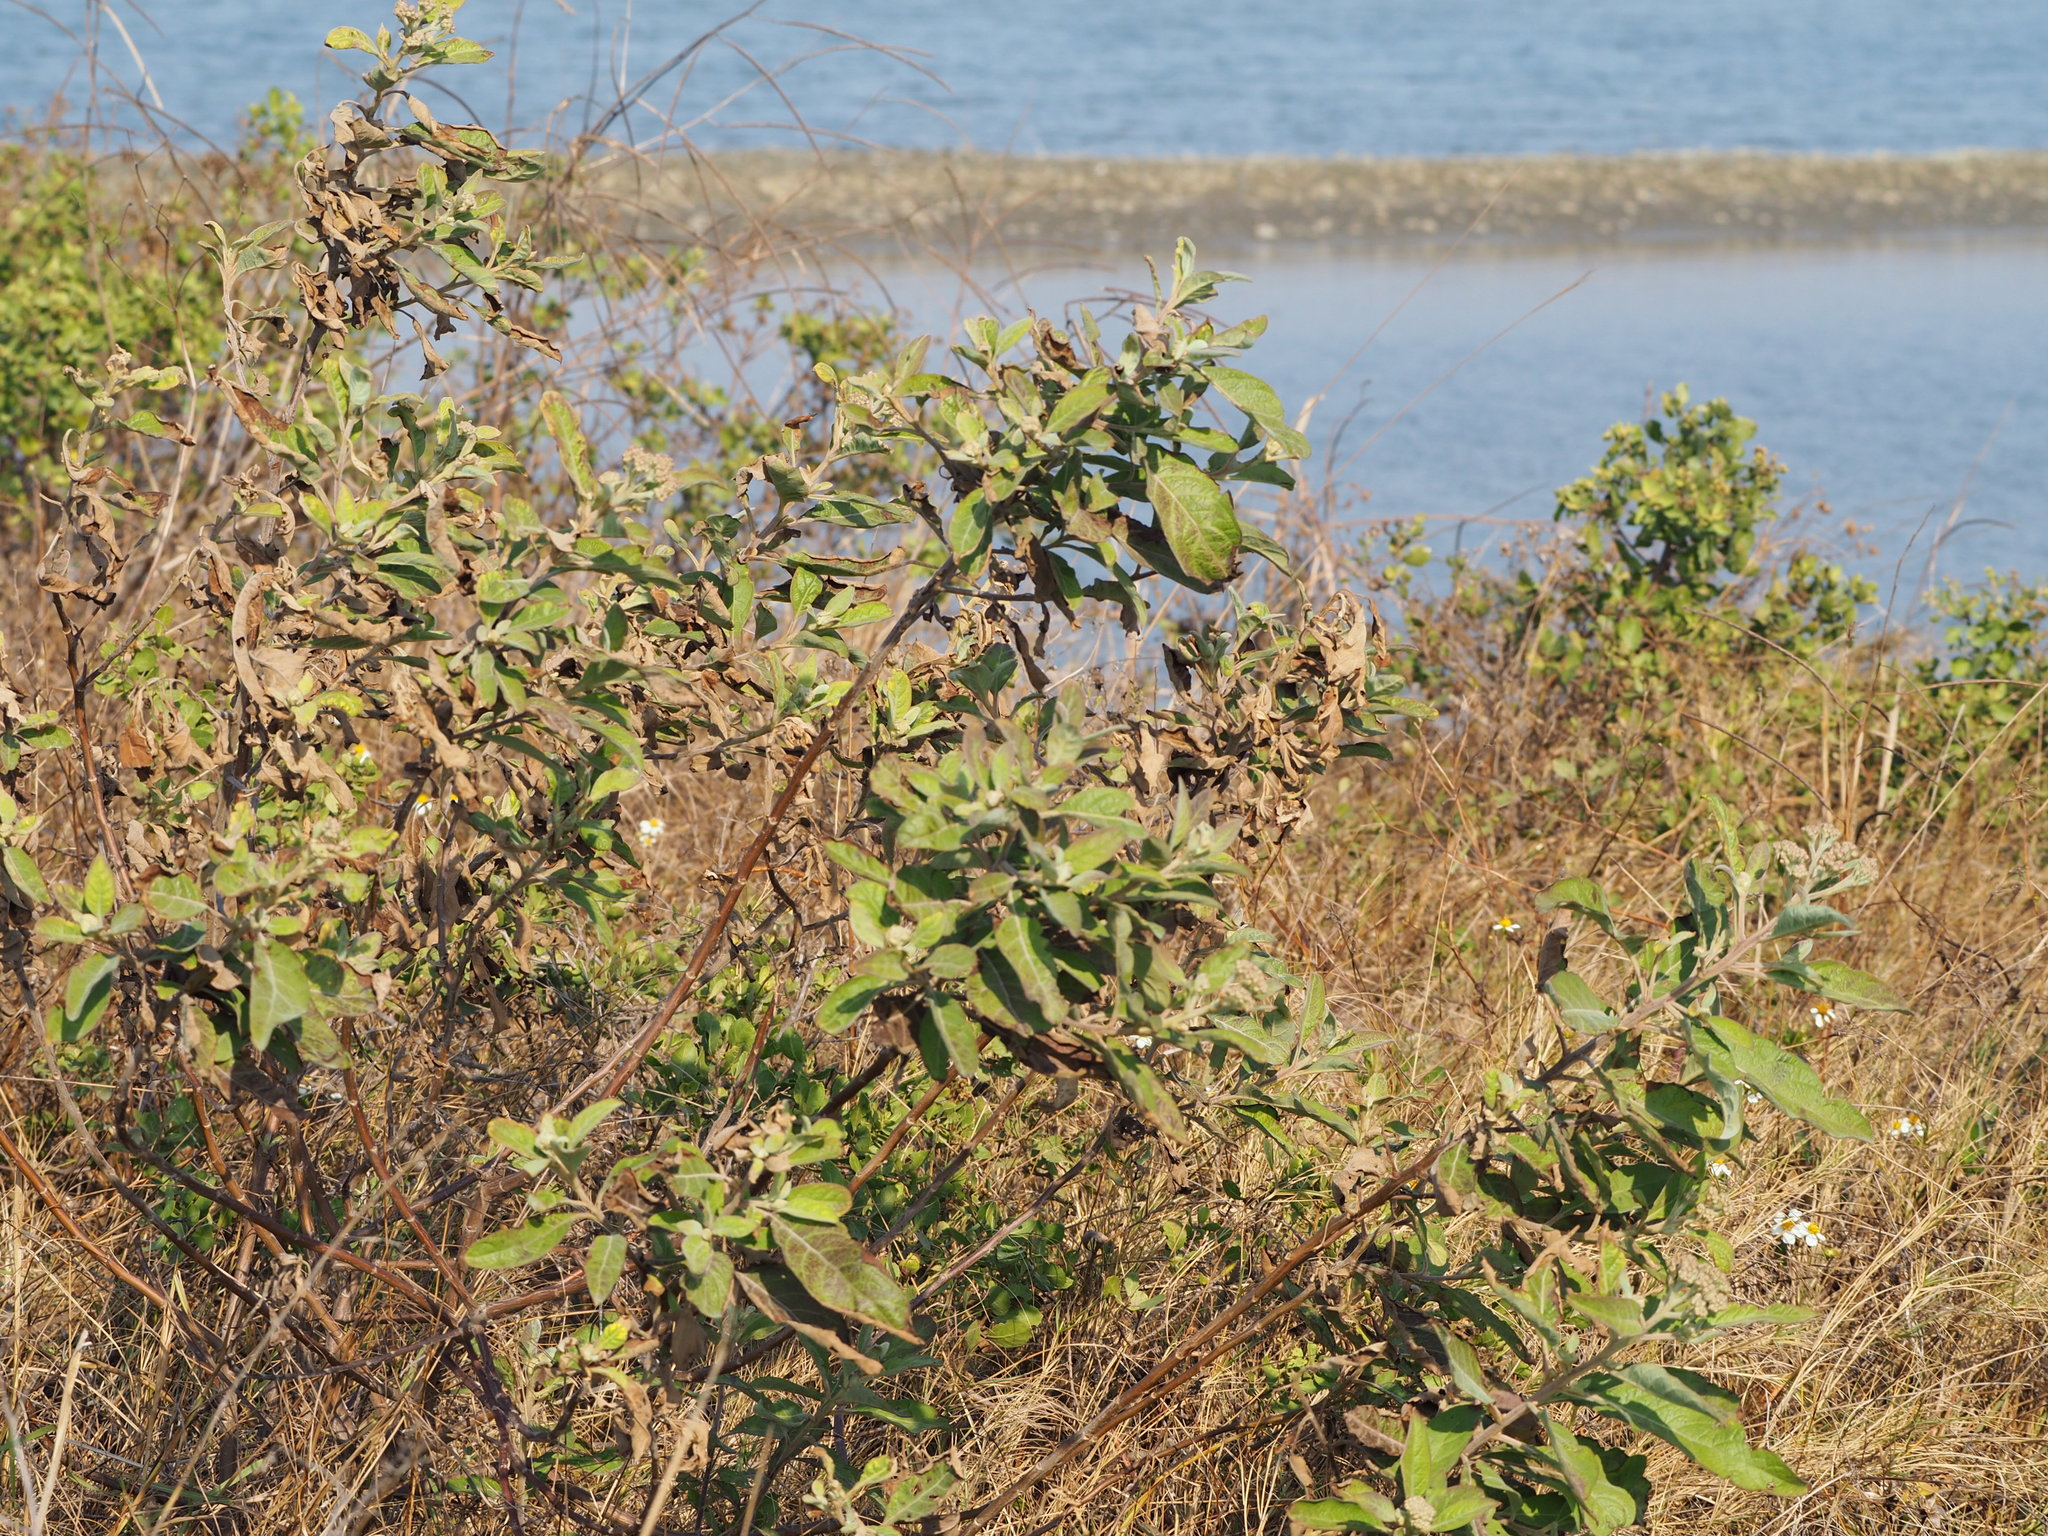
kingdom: Plantae
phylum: Tracheophyta
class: Magnoliopsida
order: Asterales
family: Asteraceae
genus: Pluchea
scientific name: Pluchea carolinensis
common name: Marsh fleabane
